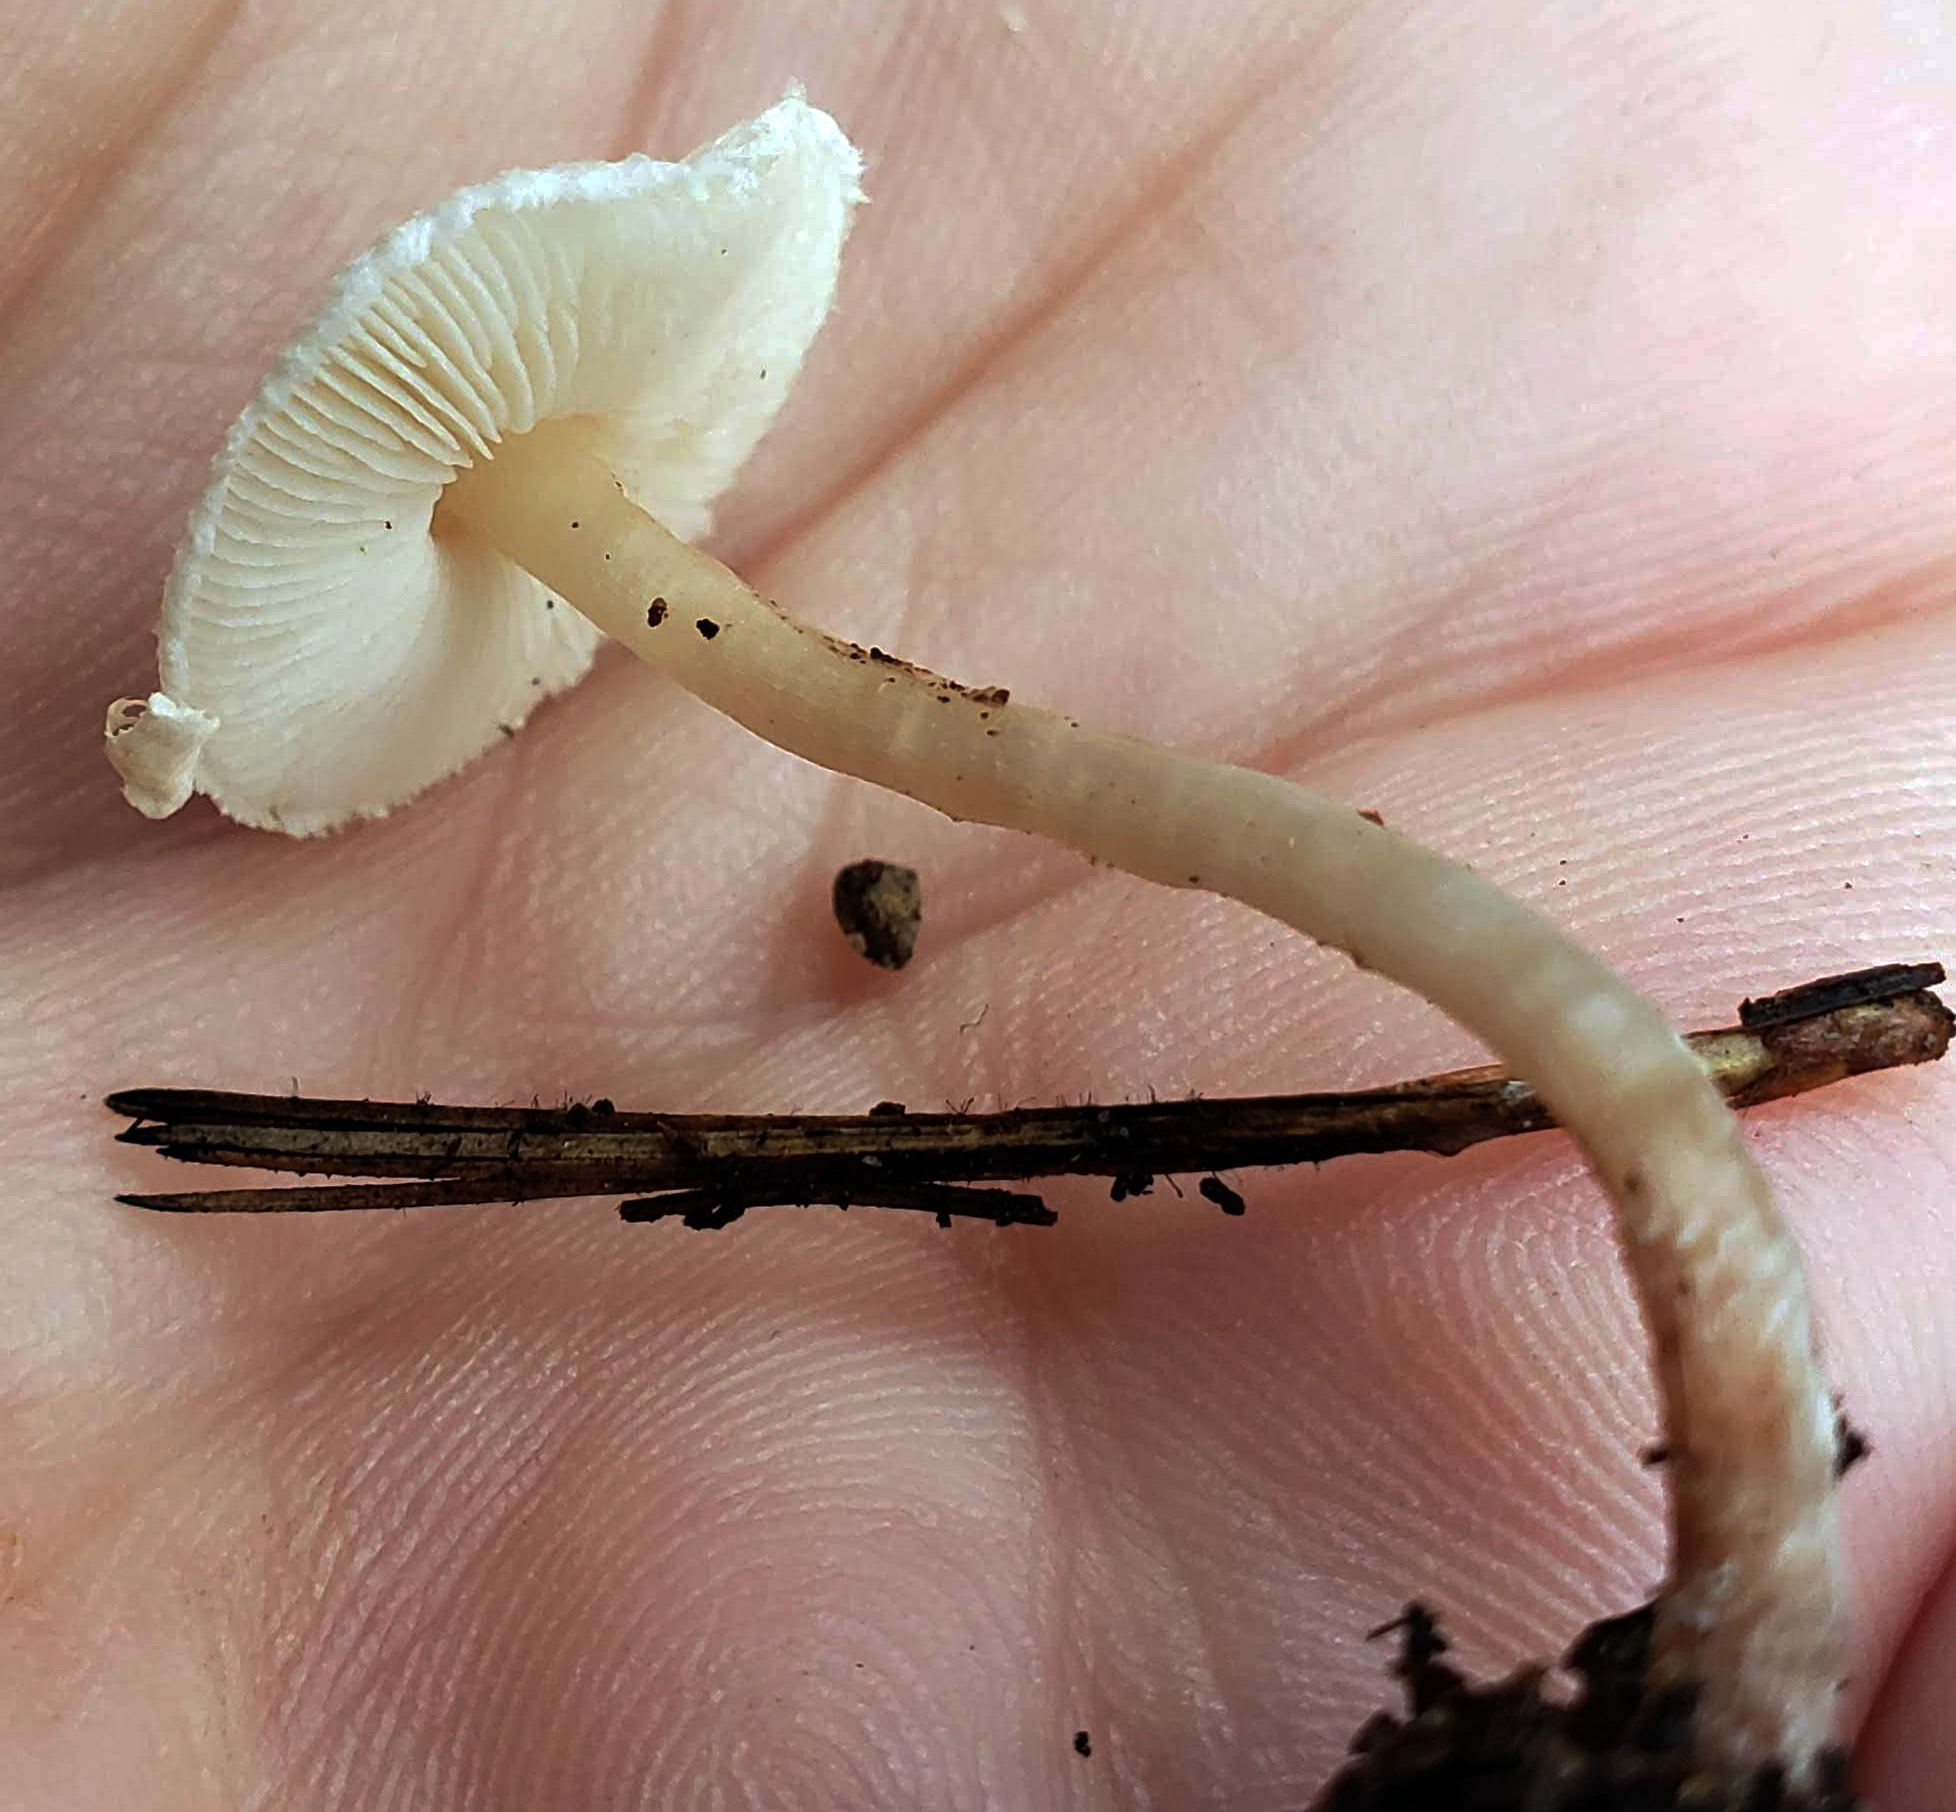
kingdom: Fungi
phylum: Basidiomycota
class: Agaricomycetes
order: Agaricales
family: Agaricaceae
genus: Lepiota
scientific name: Lepiota cristata
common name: Stinking dapperling
